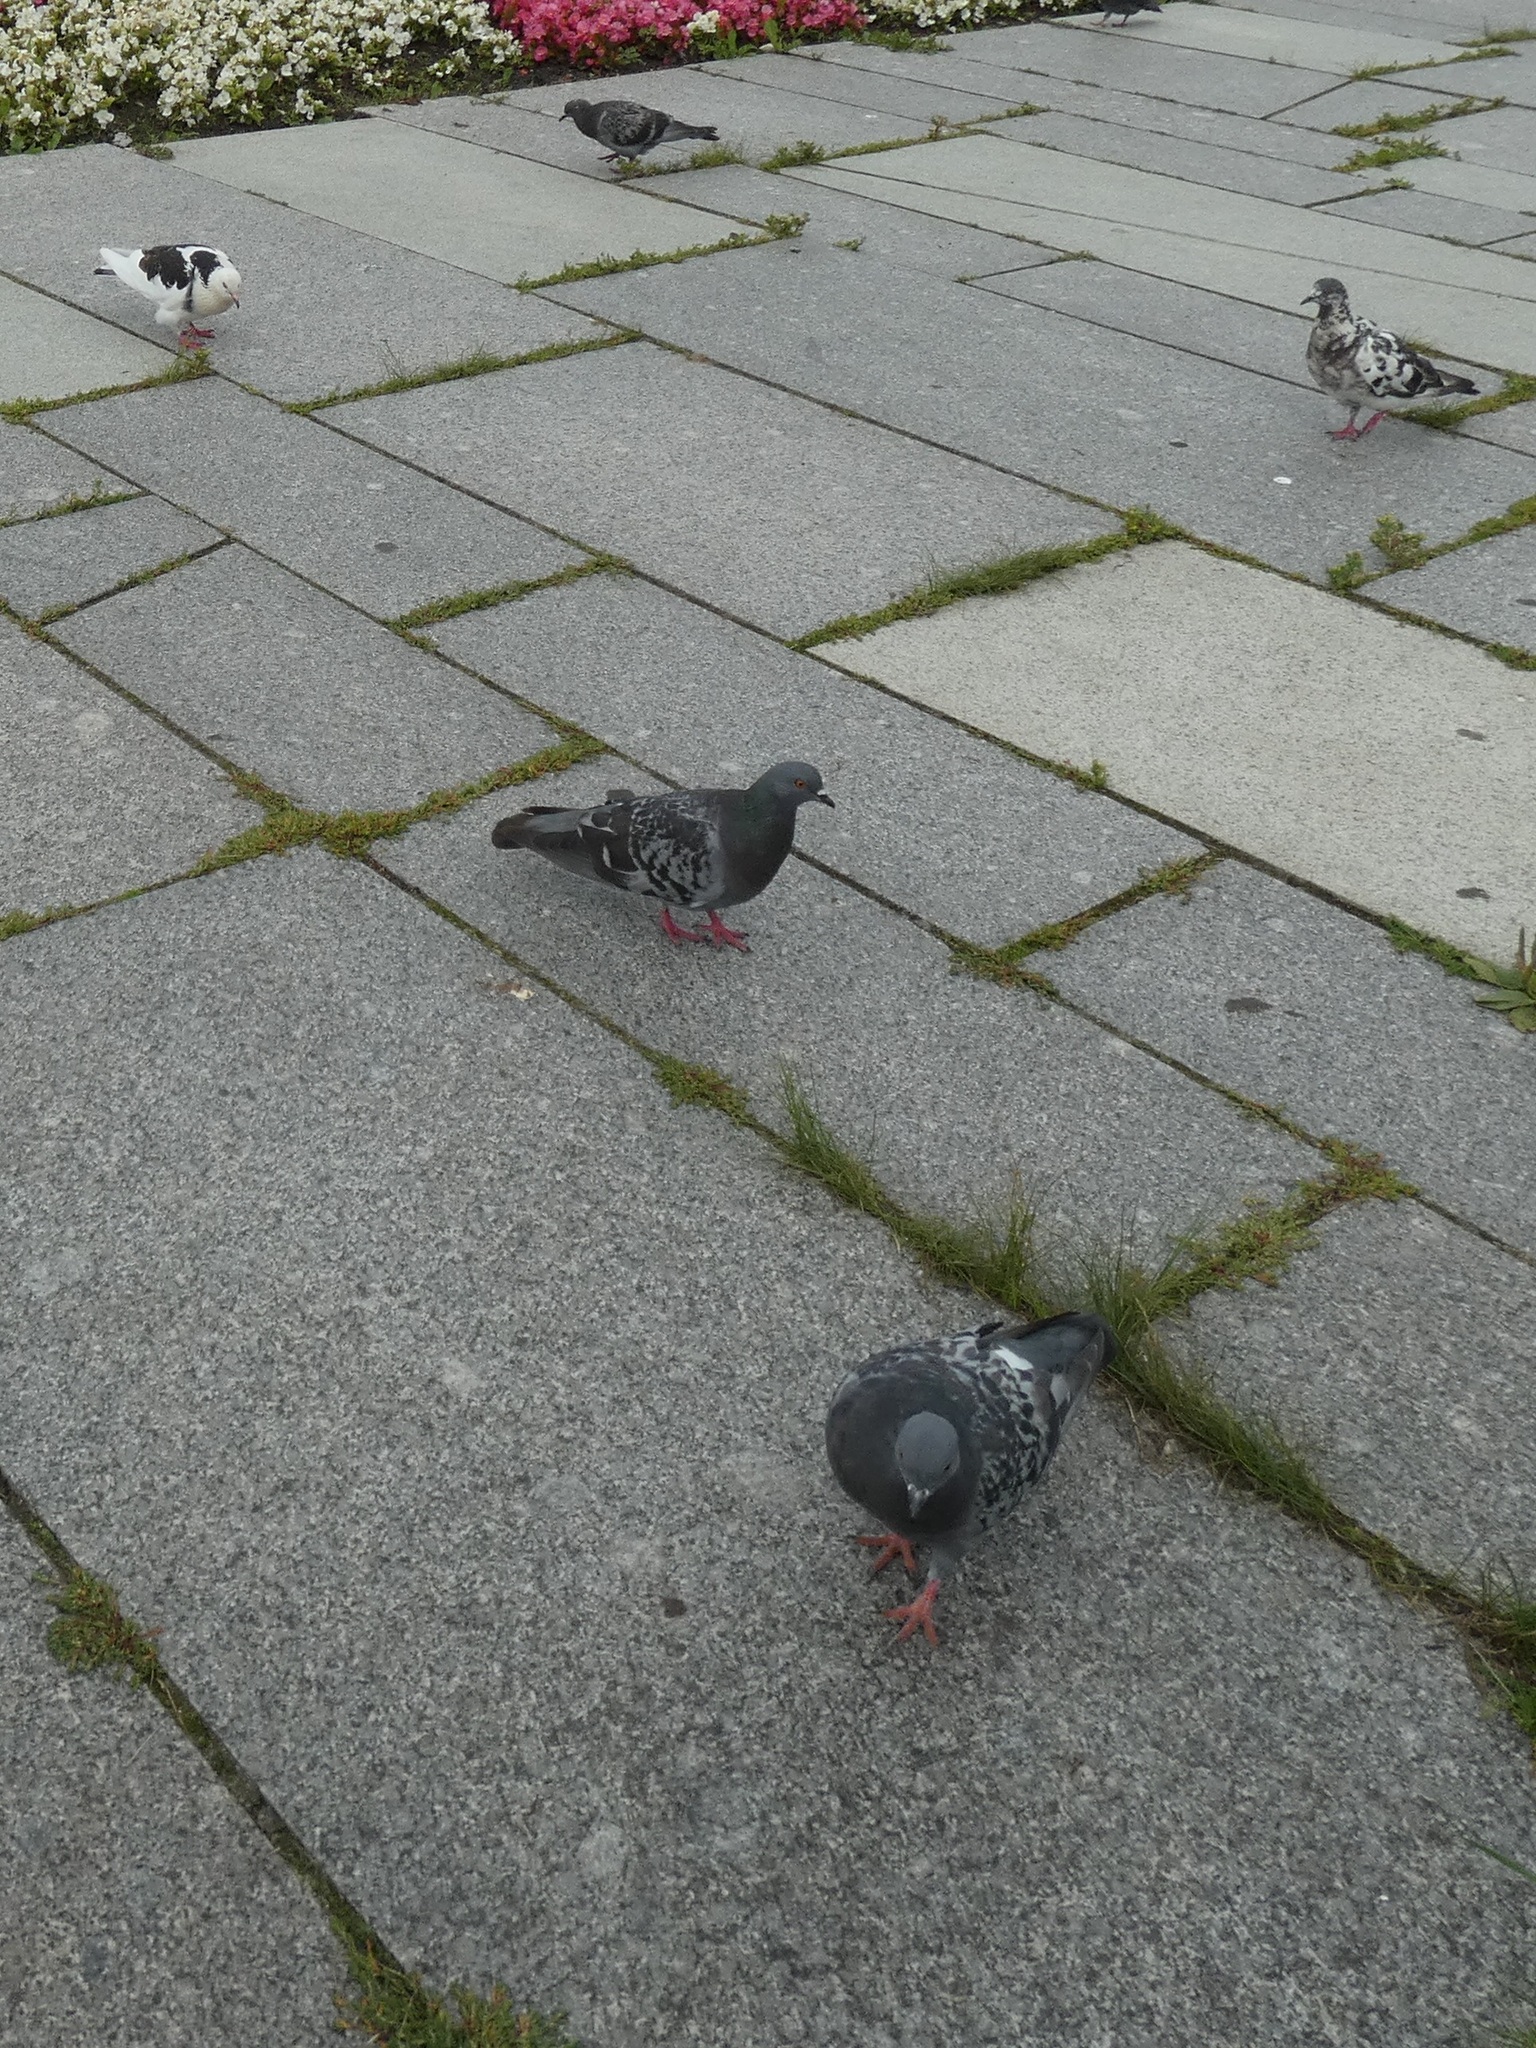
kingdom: Animalia
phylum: Chordata
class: Aves
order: Columbiformes
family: Columbidae
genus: Columba
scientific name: Columba livia
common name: Rock pigeon
